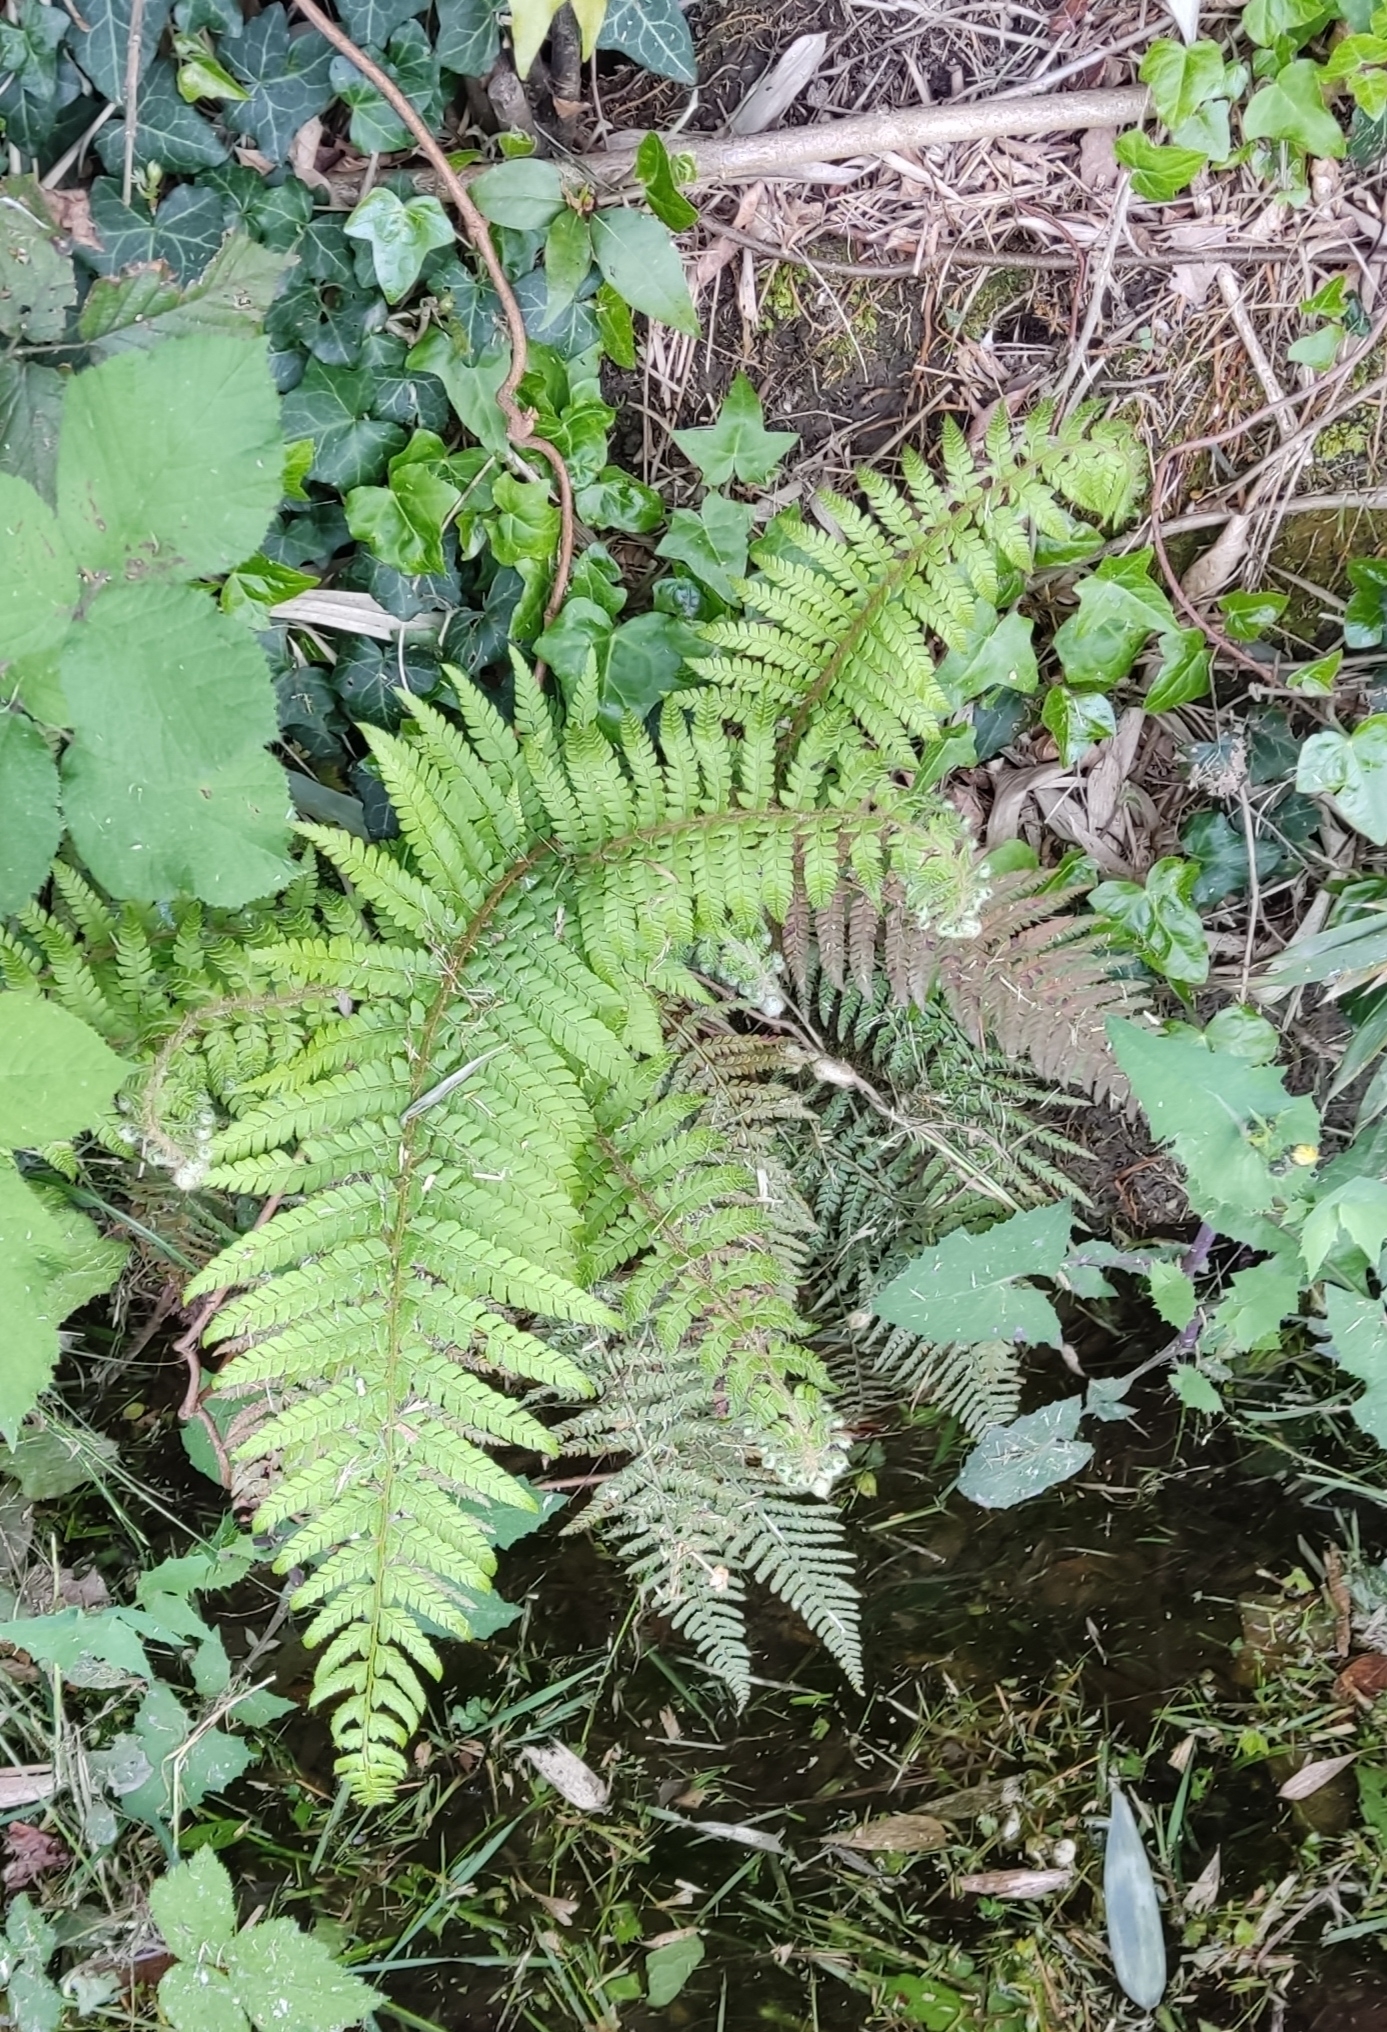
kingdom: Plantae
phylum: Tracheophyta
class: Polypodiopsida
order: Polypodiales
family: Dryopteridaceae
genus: Polystichum
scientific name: Polystichum setiferum
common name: Soft shield-fern
